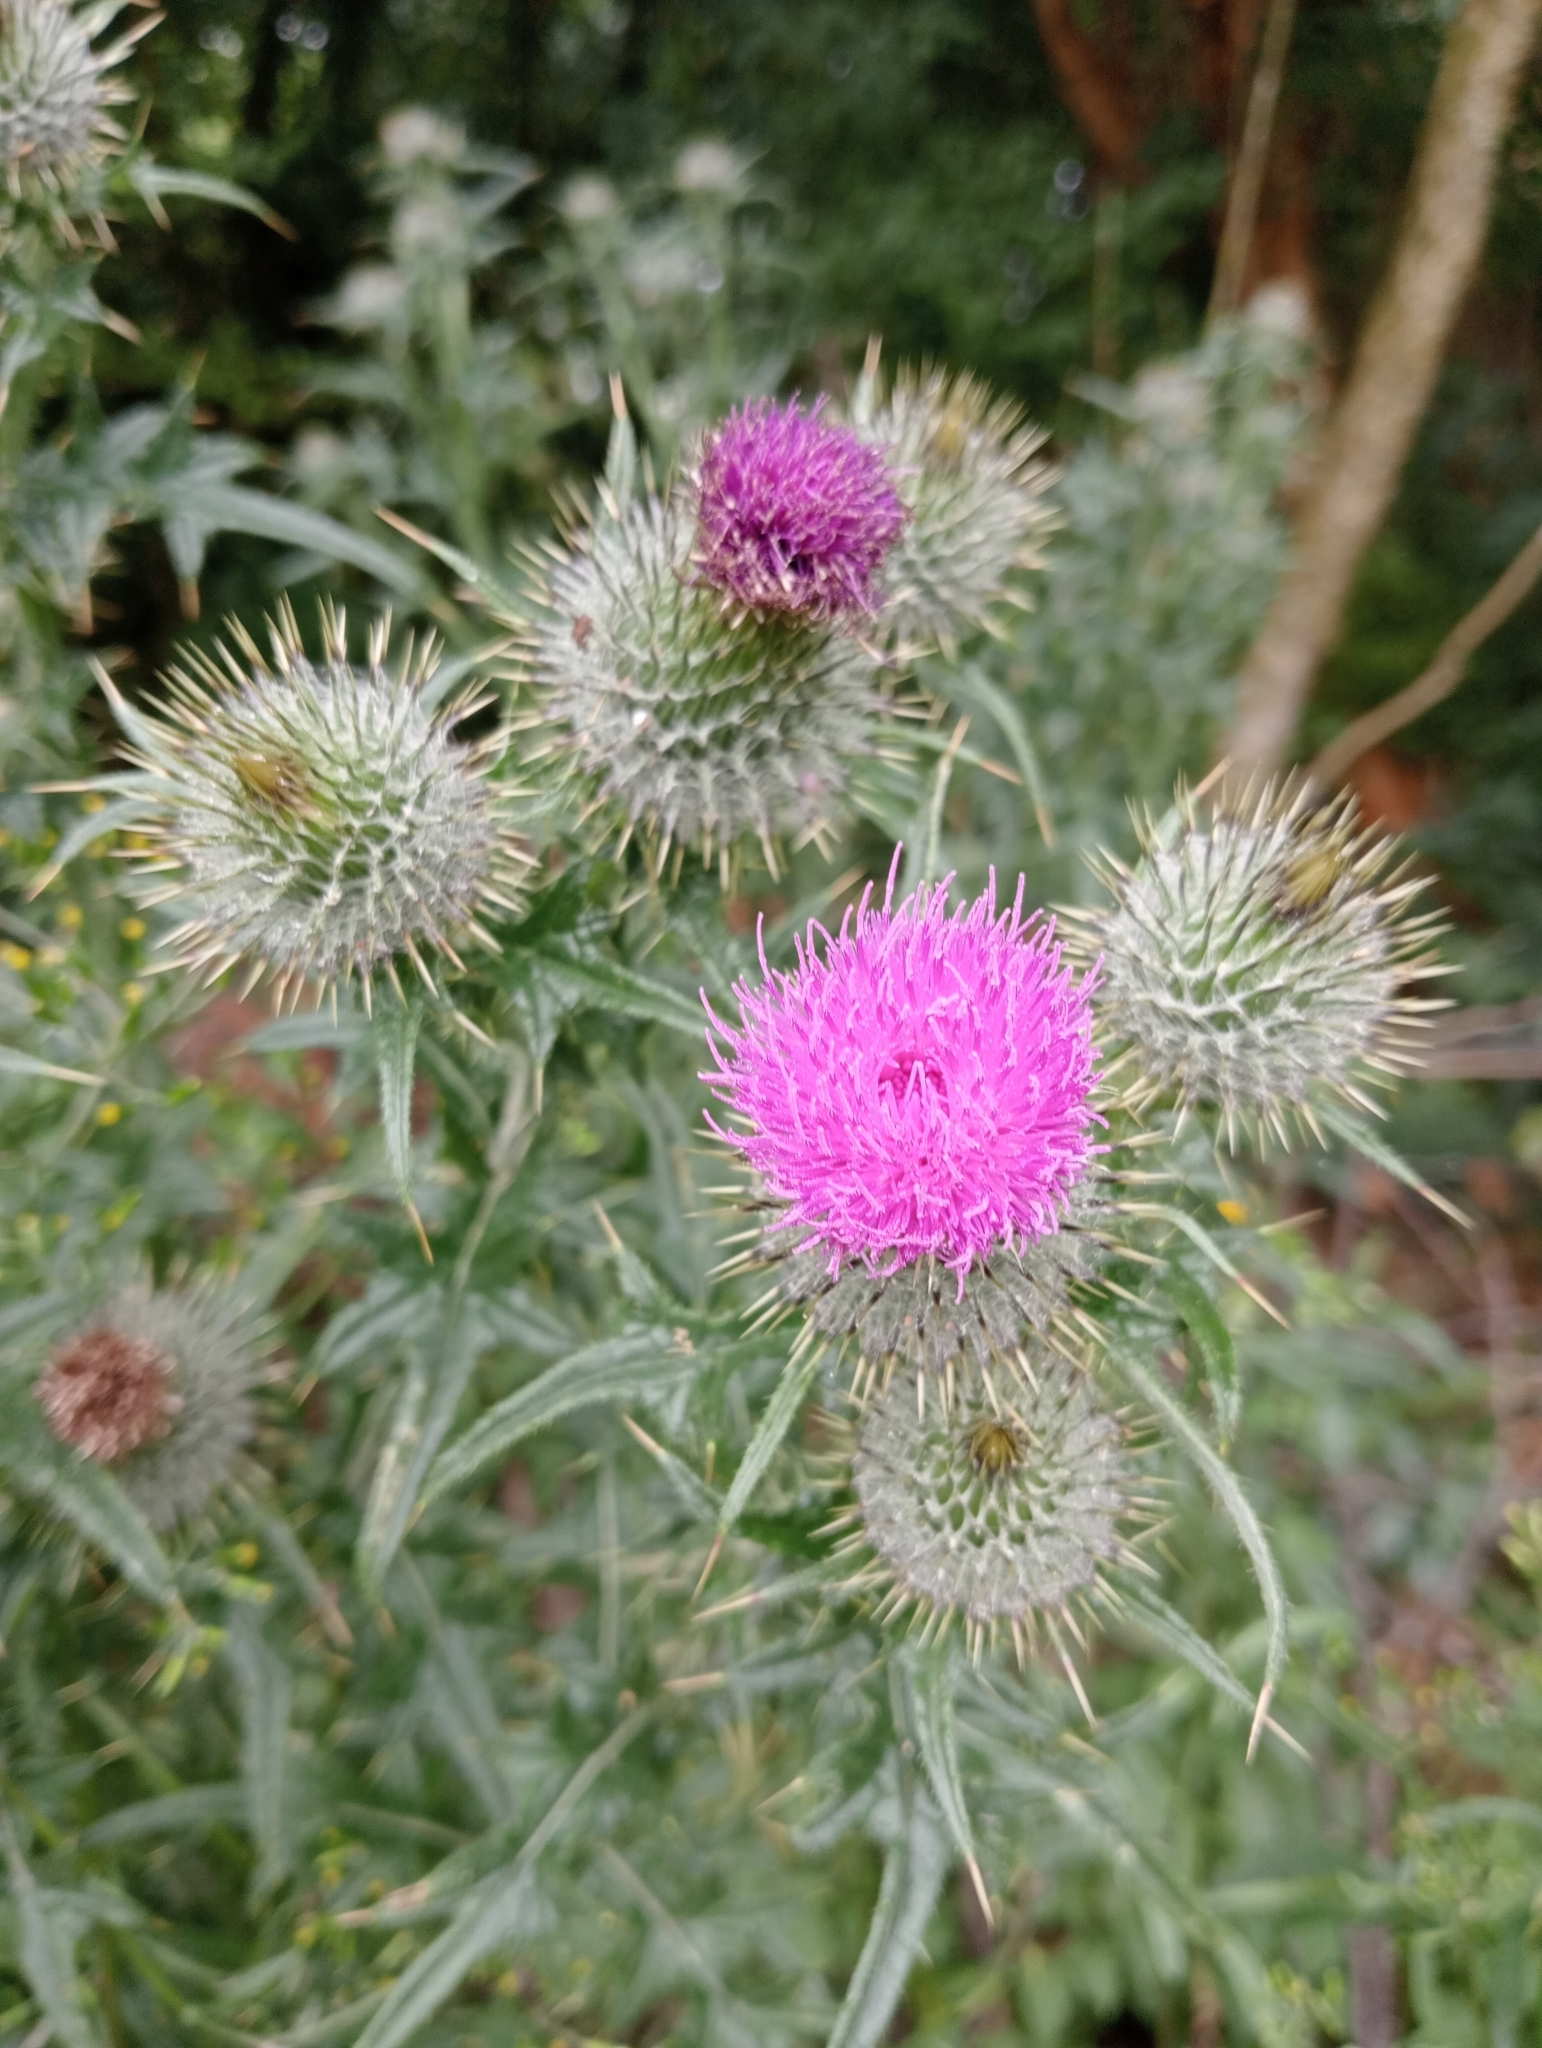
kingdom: Plantae
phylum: Tracheophyta
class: Magnoliopsida
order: Asterales
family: Asteraceae
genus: Cirsium
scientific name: Cirsium vulgare
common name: Bull thistle
